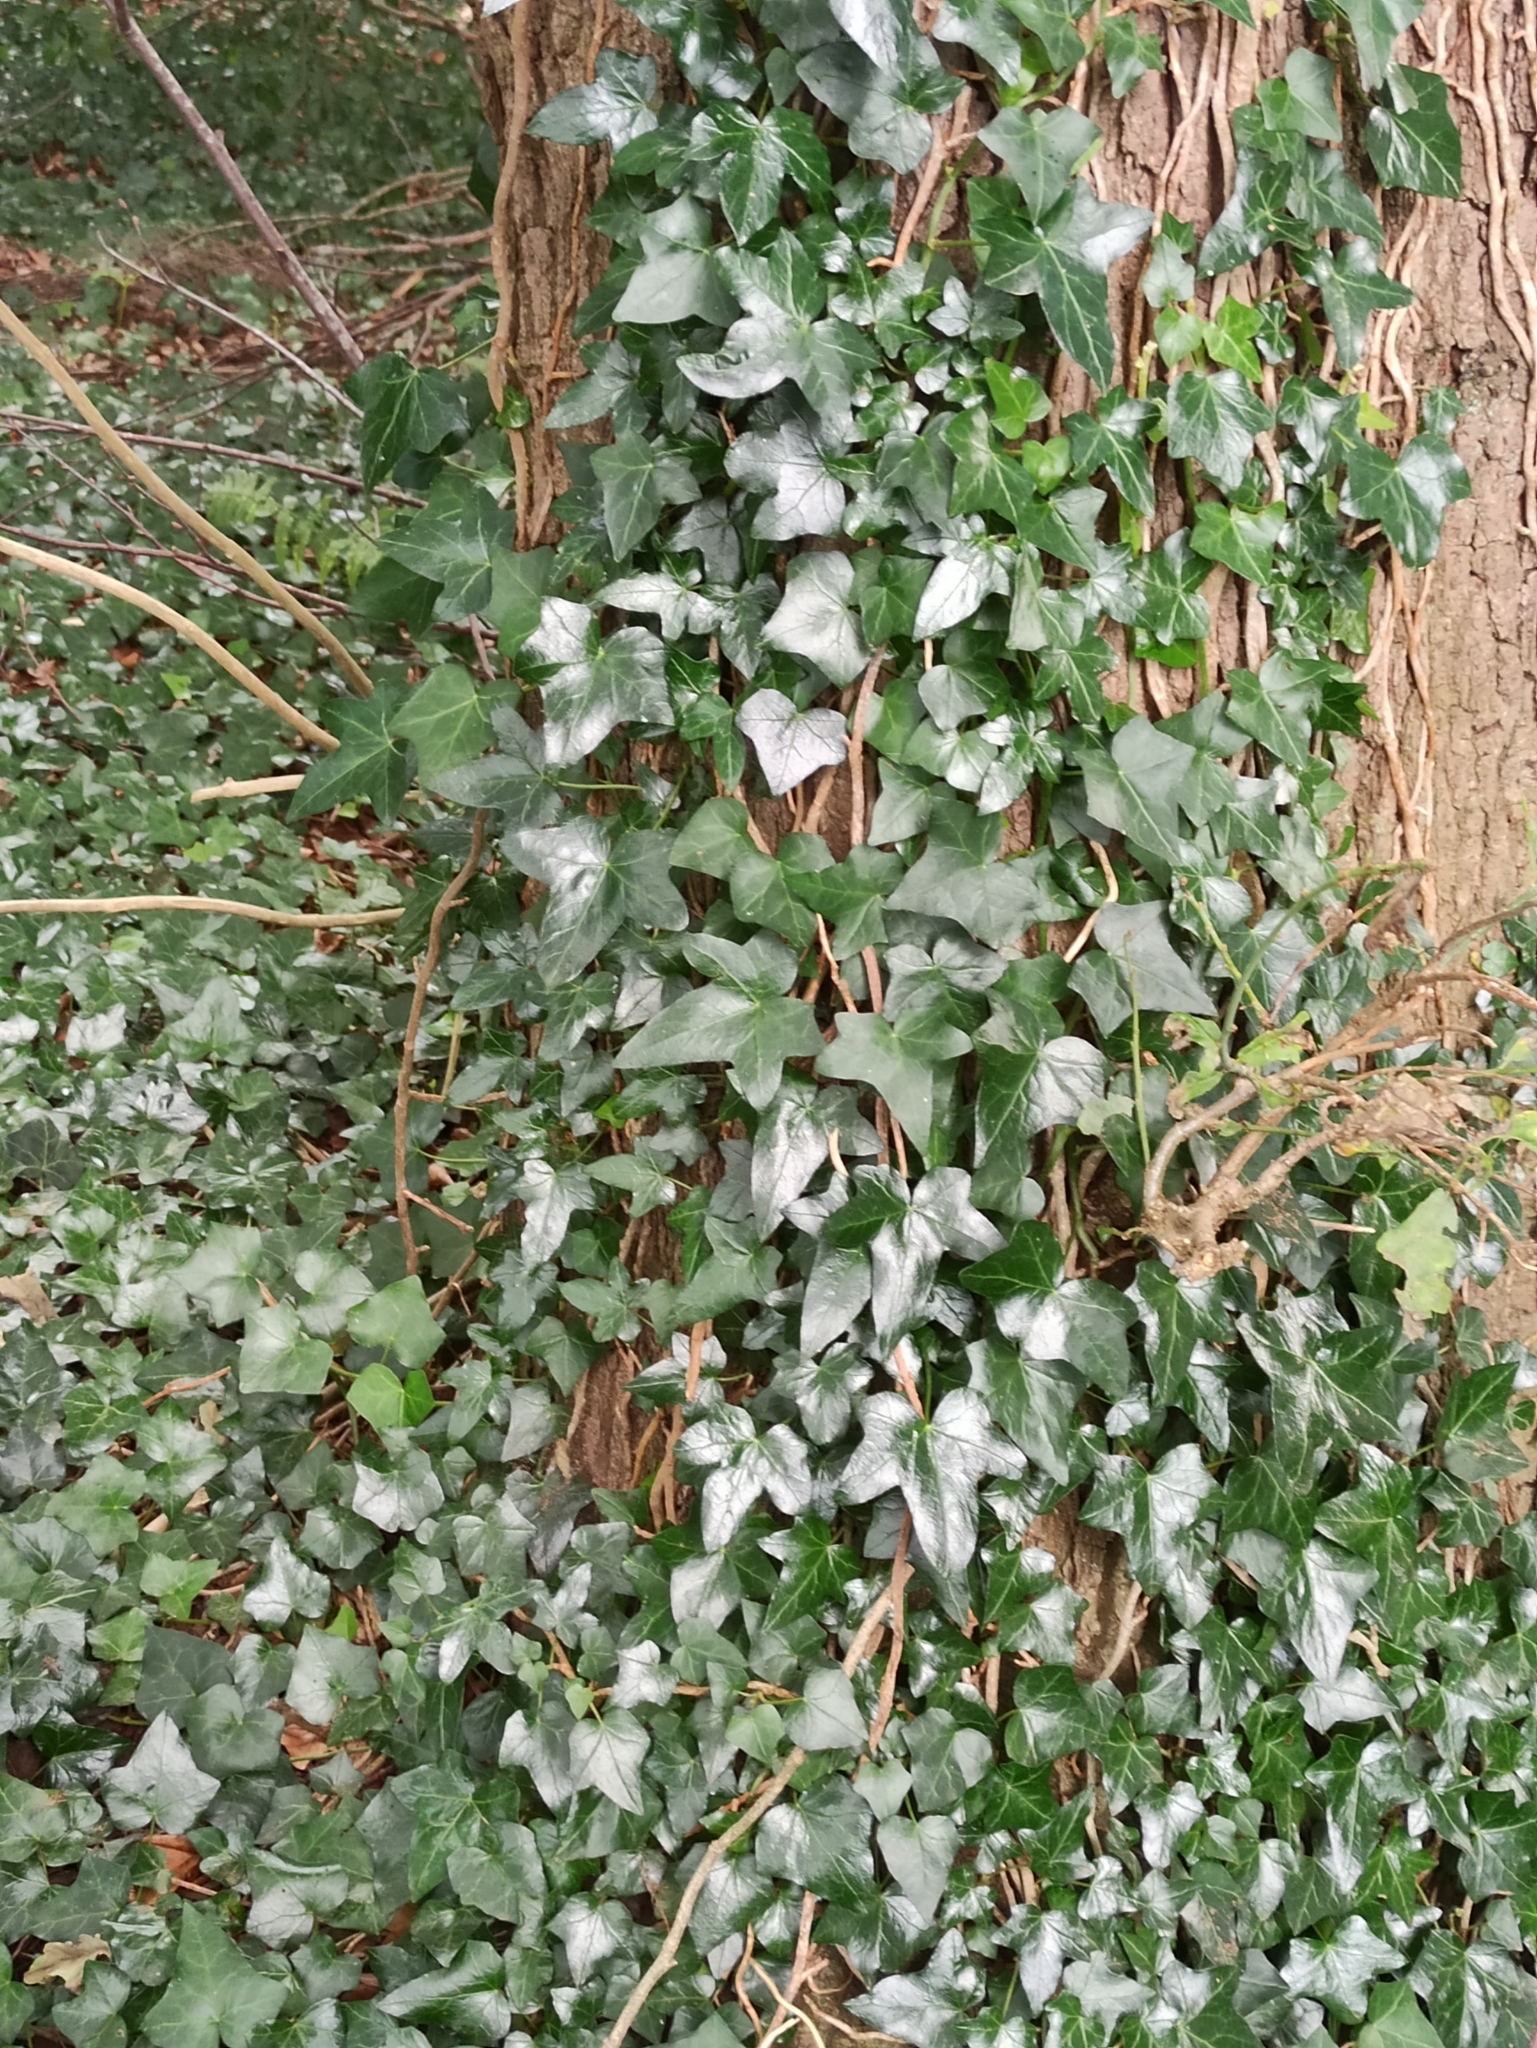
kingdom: Plantae
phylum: Tracheophyta
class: Magnoliopsida
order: Apiales
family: Araliaceae
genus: Hedera
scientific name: Hedera helix
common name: Ivy
